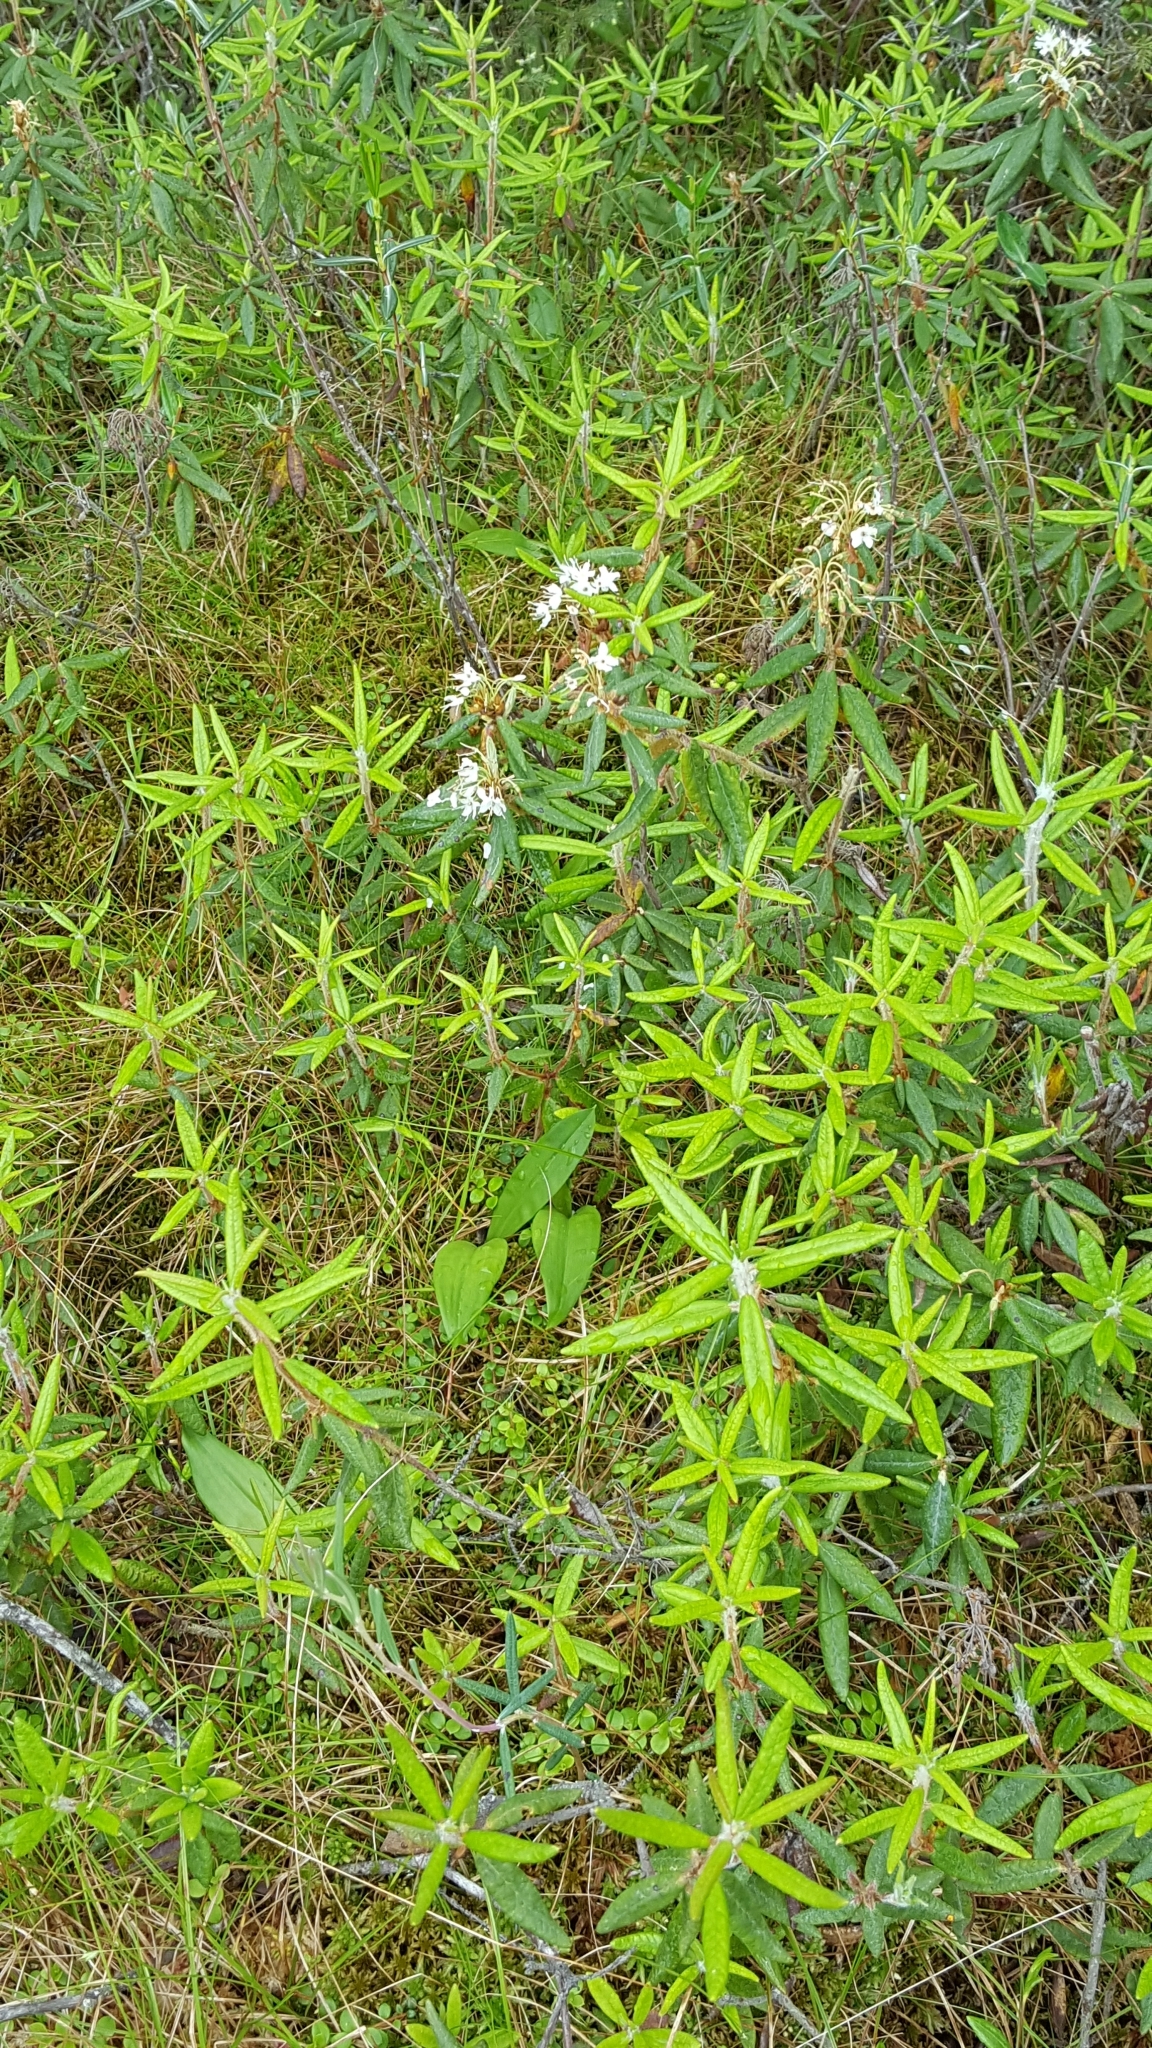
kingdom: Plantae
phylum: Tracheophyta
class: Magnoliopsida
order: Ericales
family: Ericaceae
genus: Rhododendron
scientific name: Rhododendron groenlandicum
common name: Bog labrador tea
